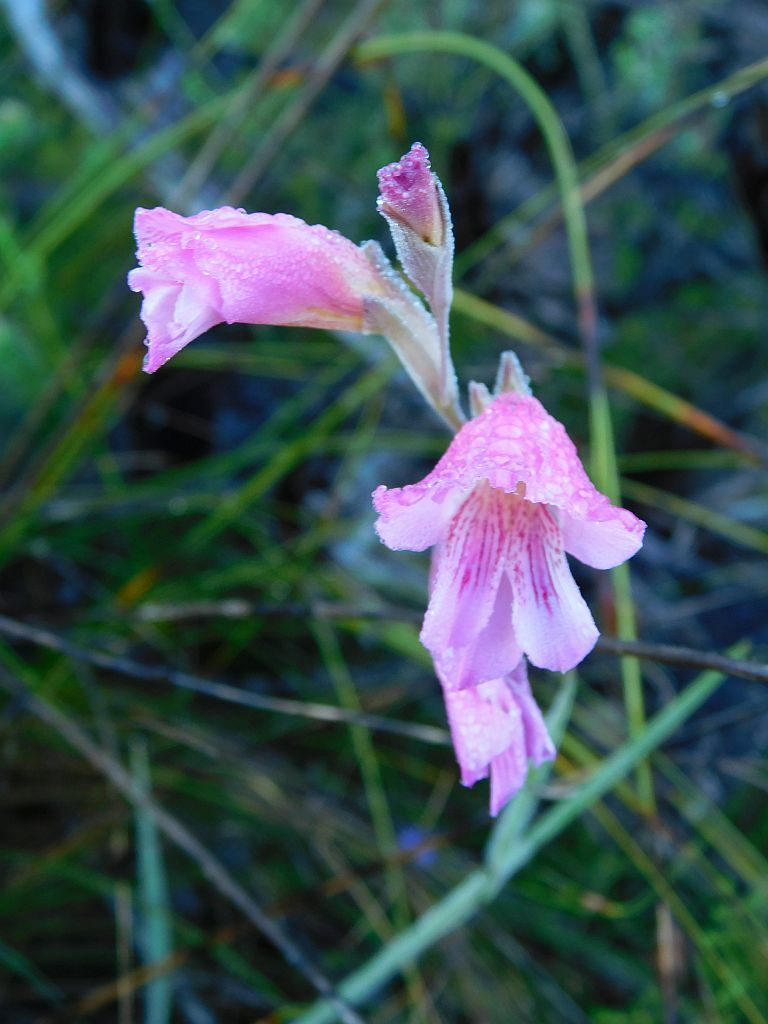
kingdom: Plantae
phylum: Tracheophyta
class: Liliopsida
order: Asparagales
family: Iridaceae
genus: Gladiolus
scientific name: Gladiolus hirsutus
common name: Small pink afrikaner
